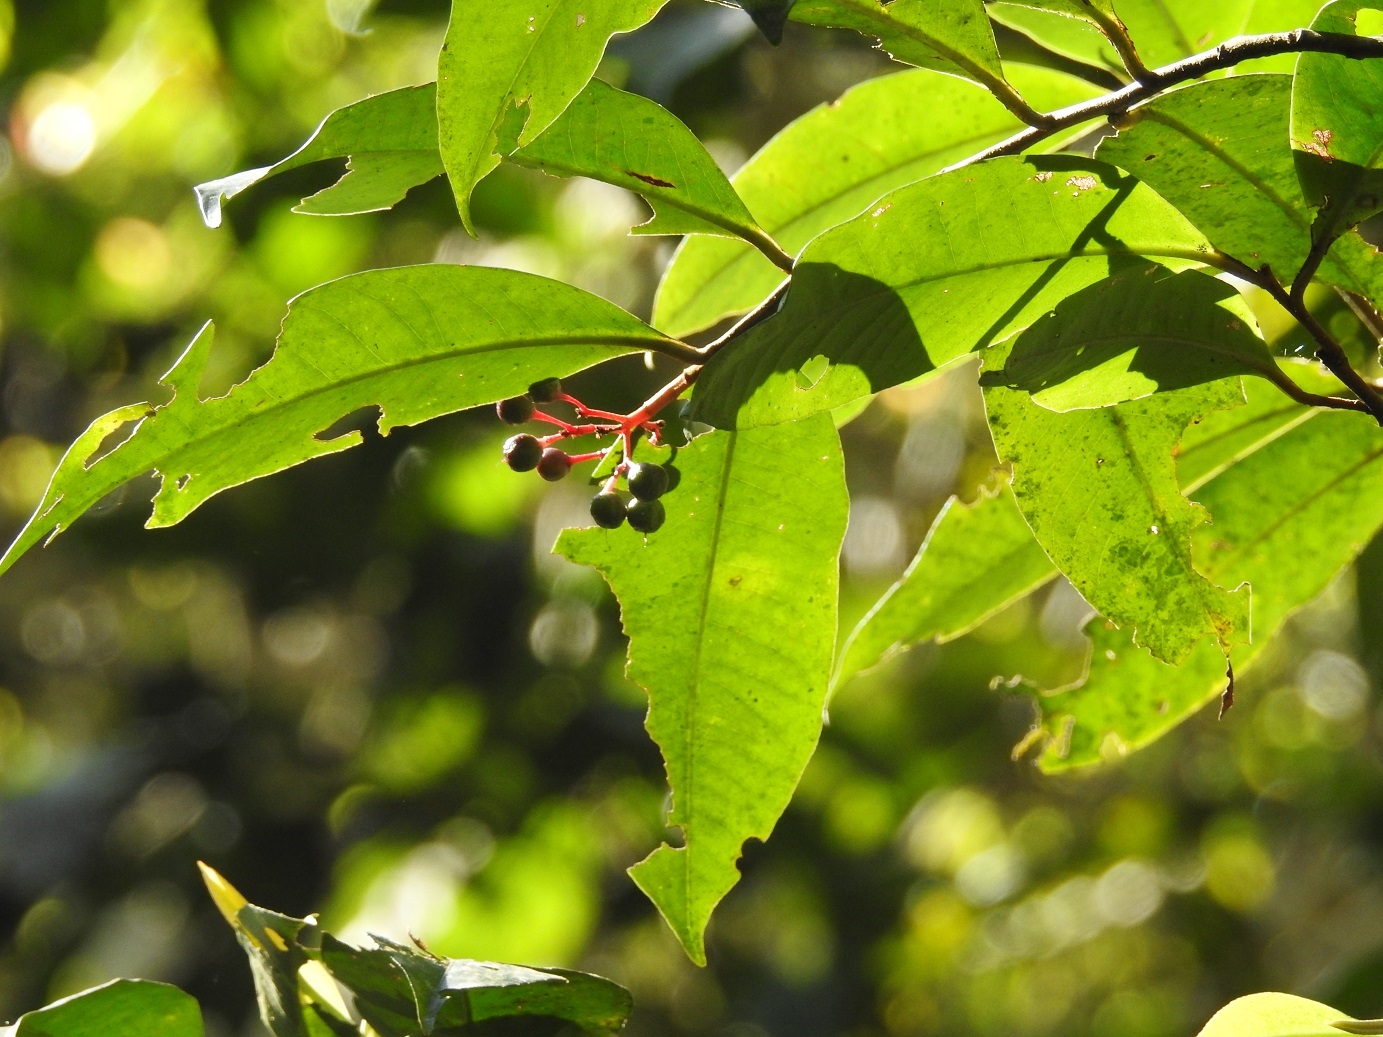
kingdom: Plantae
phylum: Tracheophyta
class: Magnoliopsida
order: Ericales
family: Primulaceae
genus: Gentlea
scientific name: Gentlea micranthera
